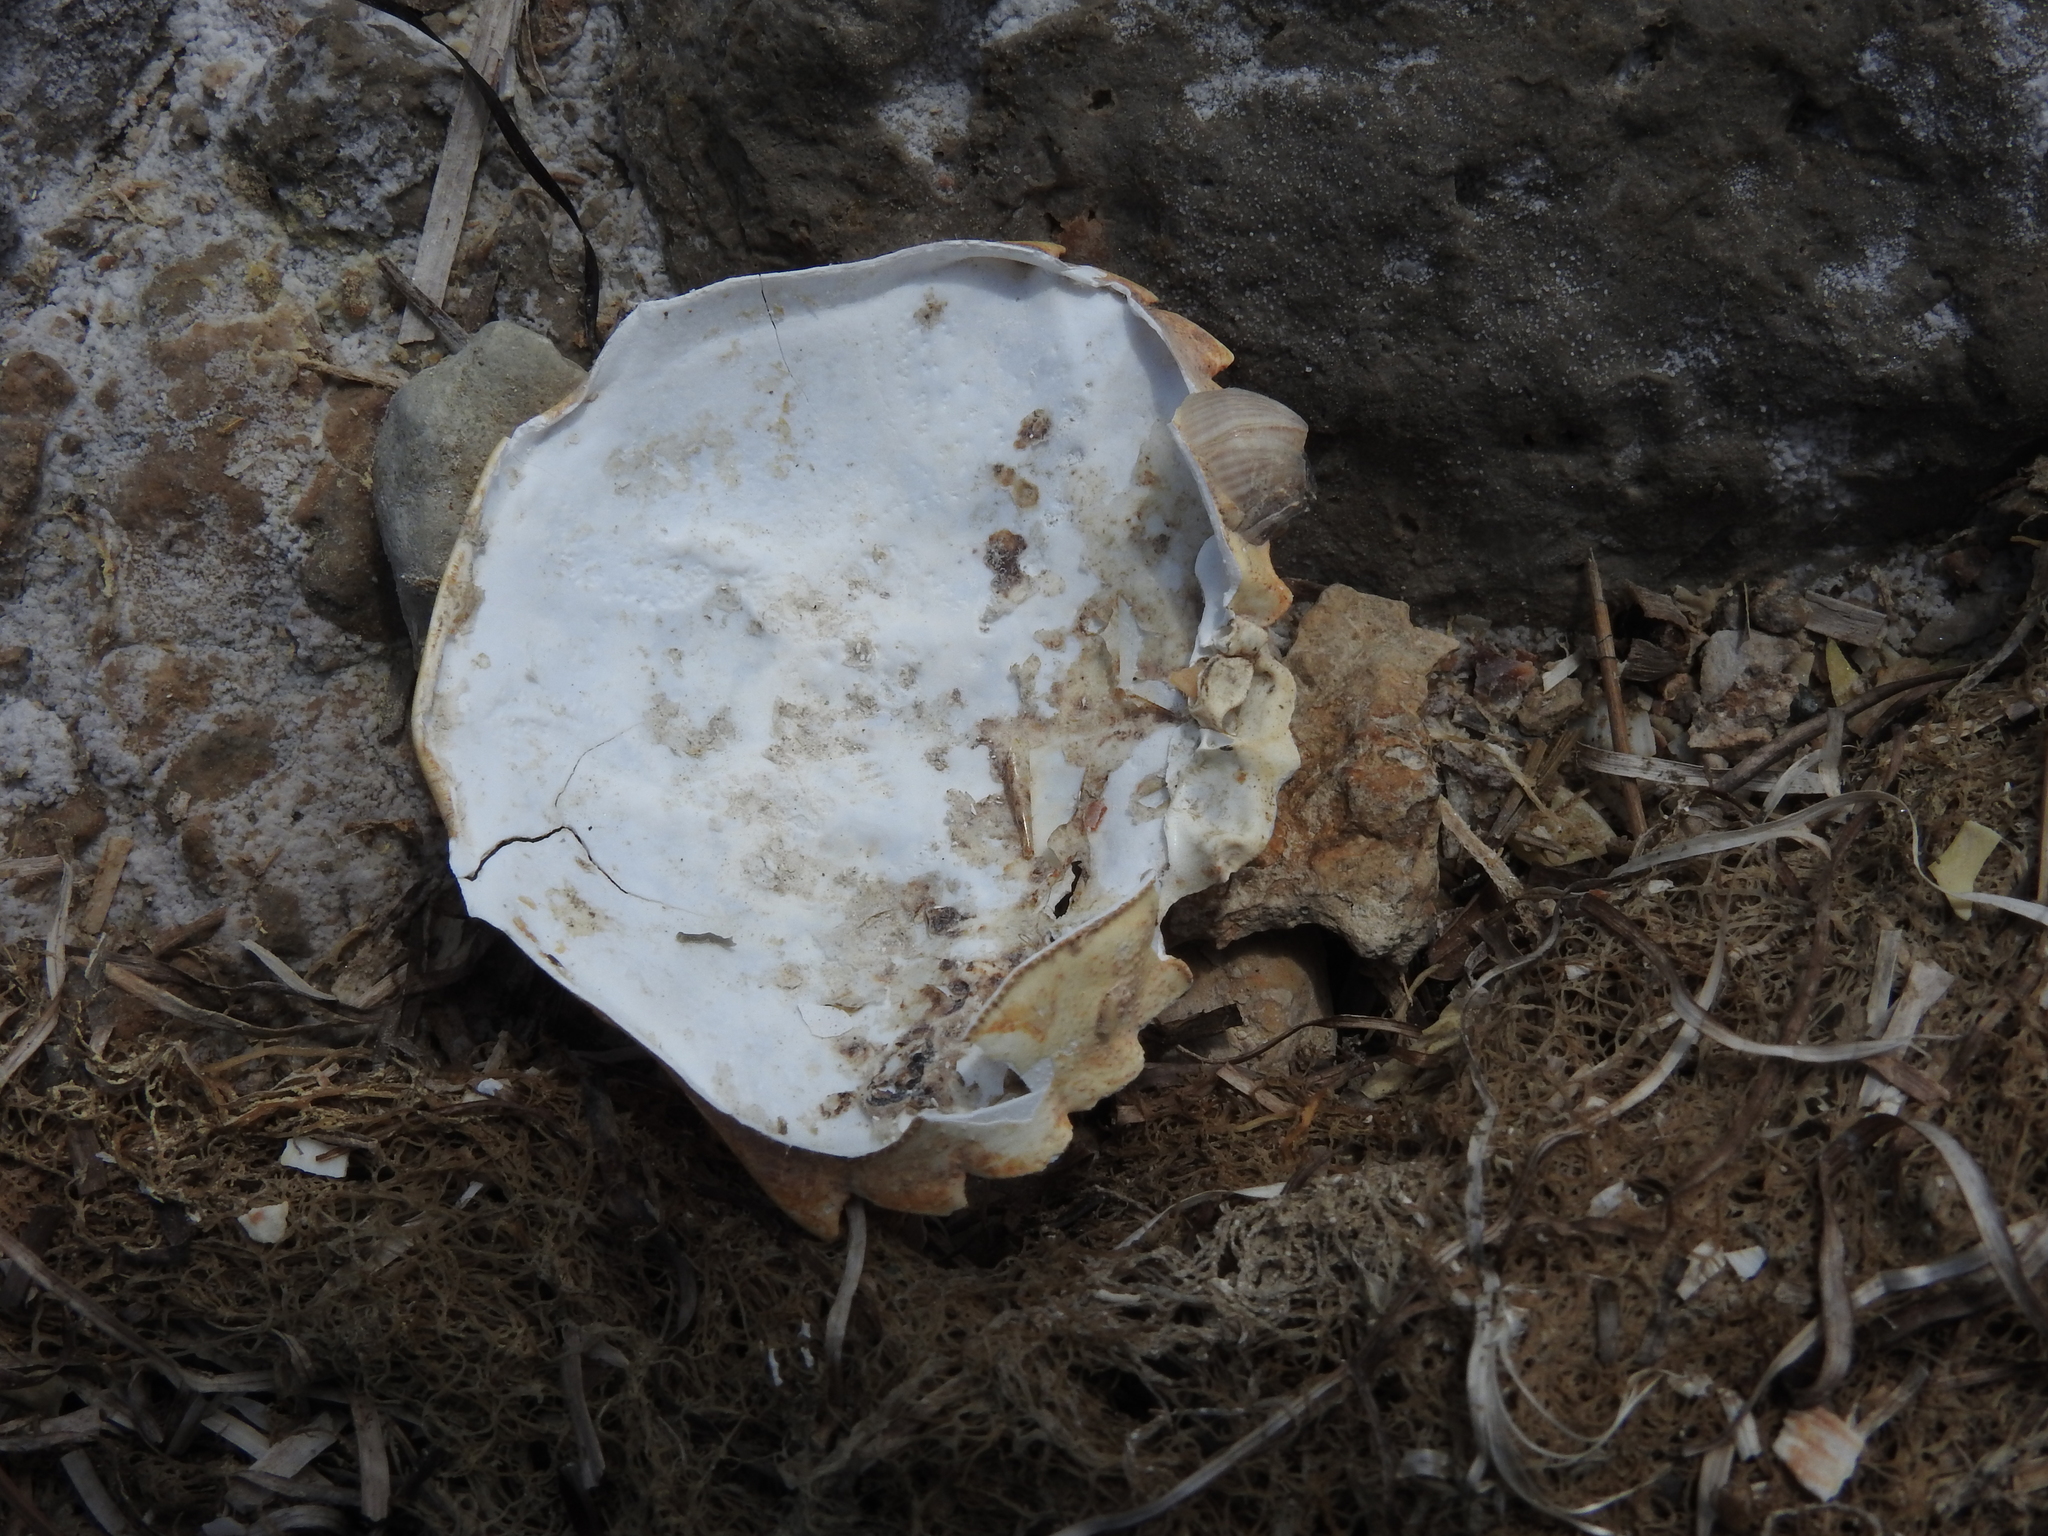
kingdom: Animalia
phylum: Arthropoda
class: Malacostraca
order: Decapoda
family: Carcinidae
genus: Carcinus
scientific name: Carcinus aestuarii
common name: Mediterranean green crab
